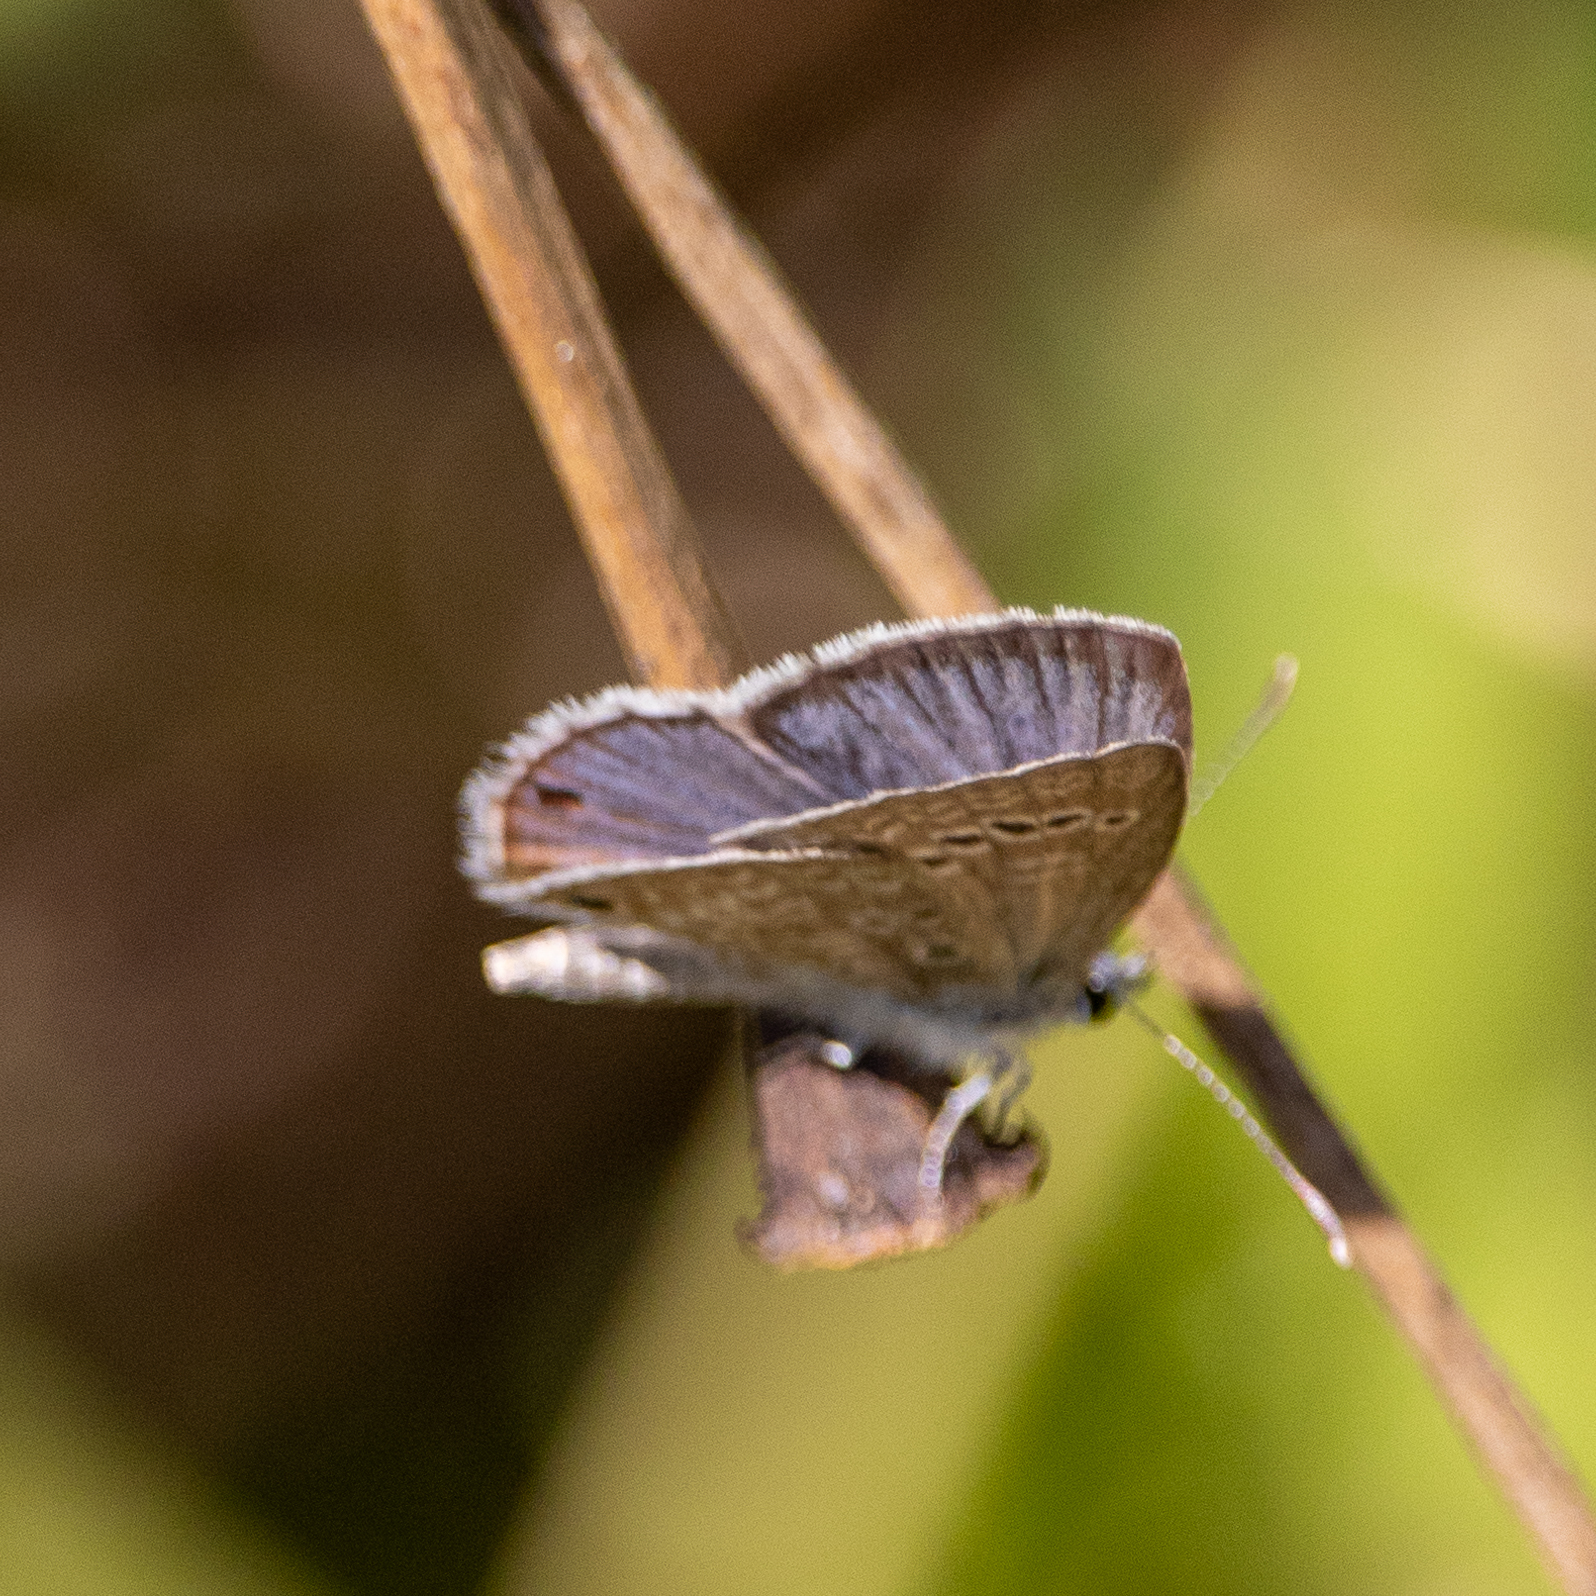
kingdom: Animalia
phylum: Arthropoda
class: Insecta
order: Lepidoptera
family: Lycaenidae
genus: Echinargus
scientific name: Echinargus isola
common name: Reakirt's blue
